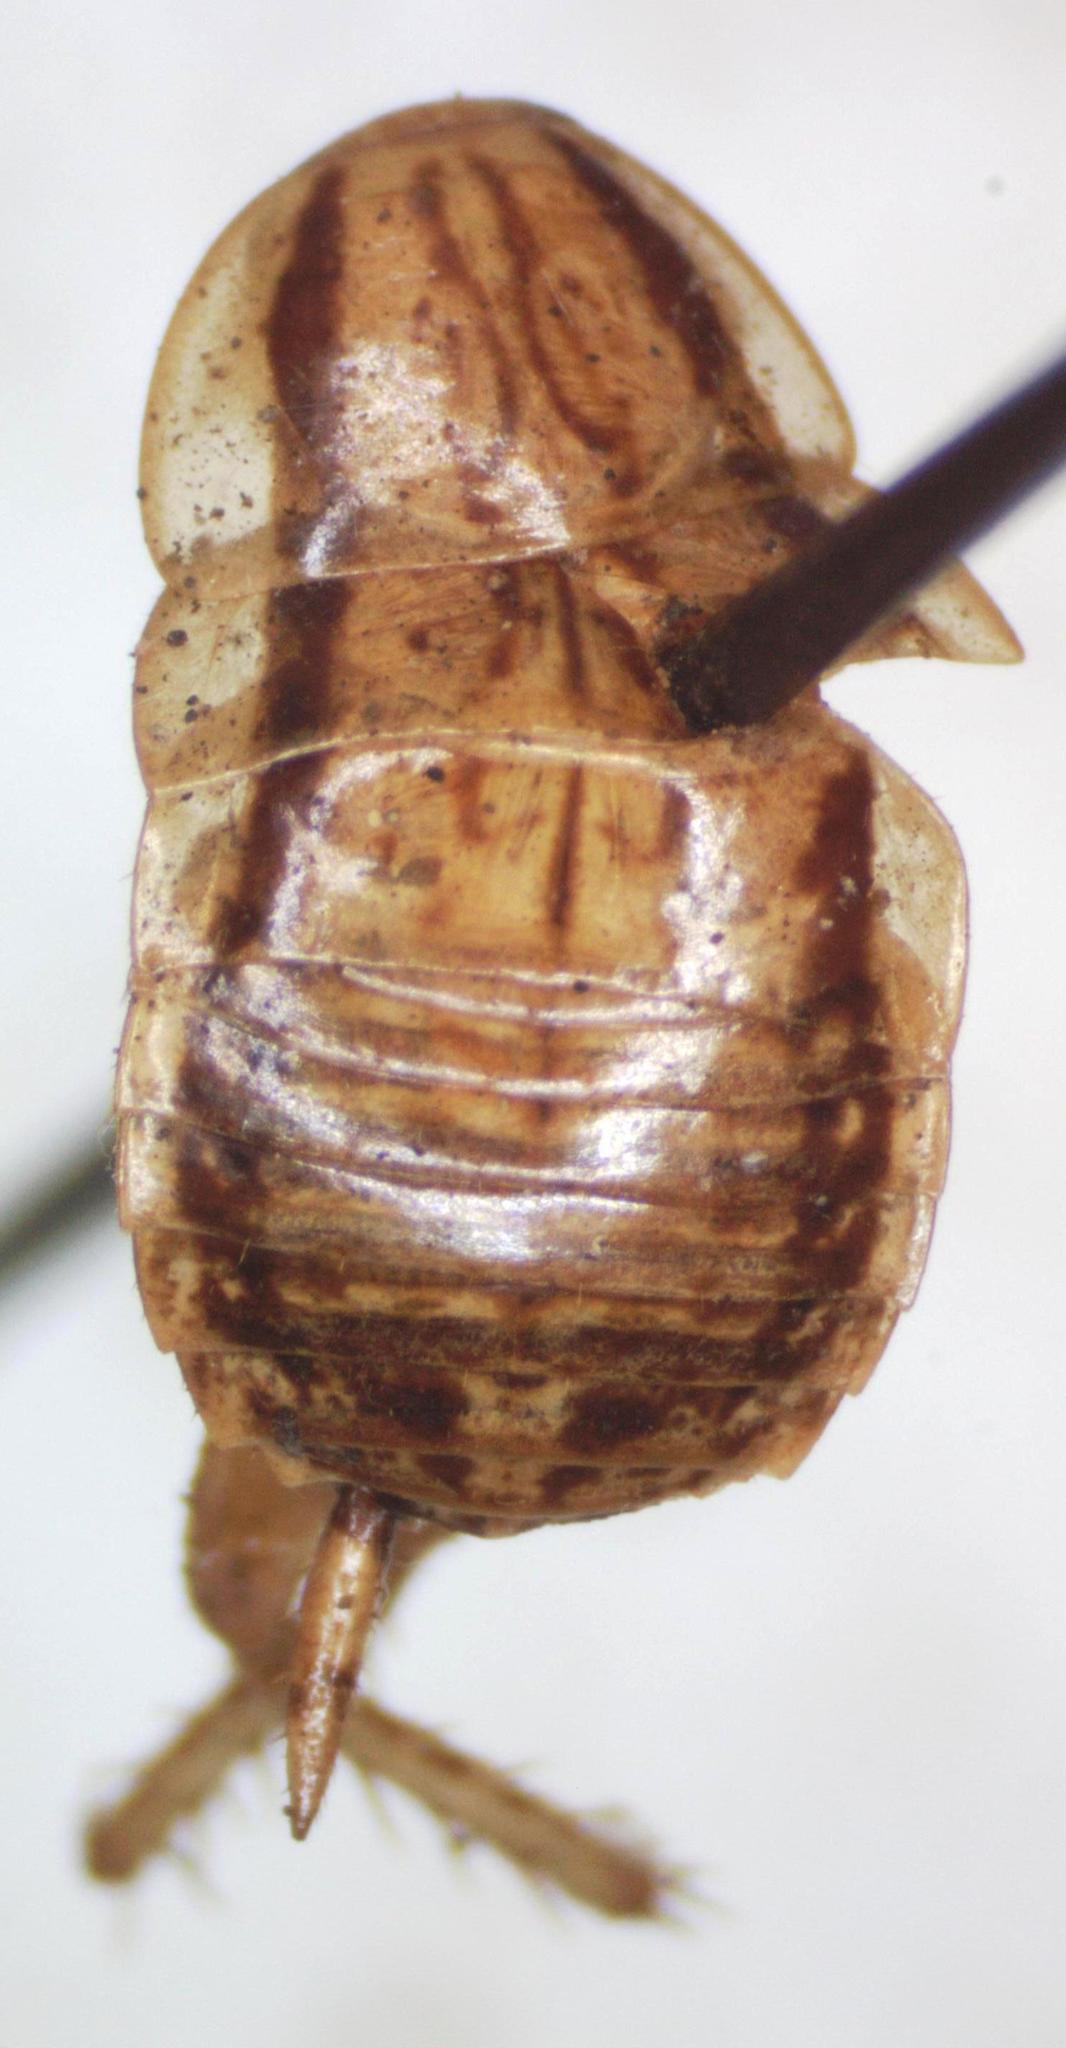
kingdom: Animalia
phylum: Arthropoda
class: Insecta
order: Blattodea
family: Ectobiidae
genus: Nahublattella
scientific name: Nahublattella fraterna
